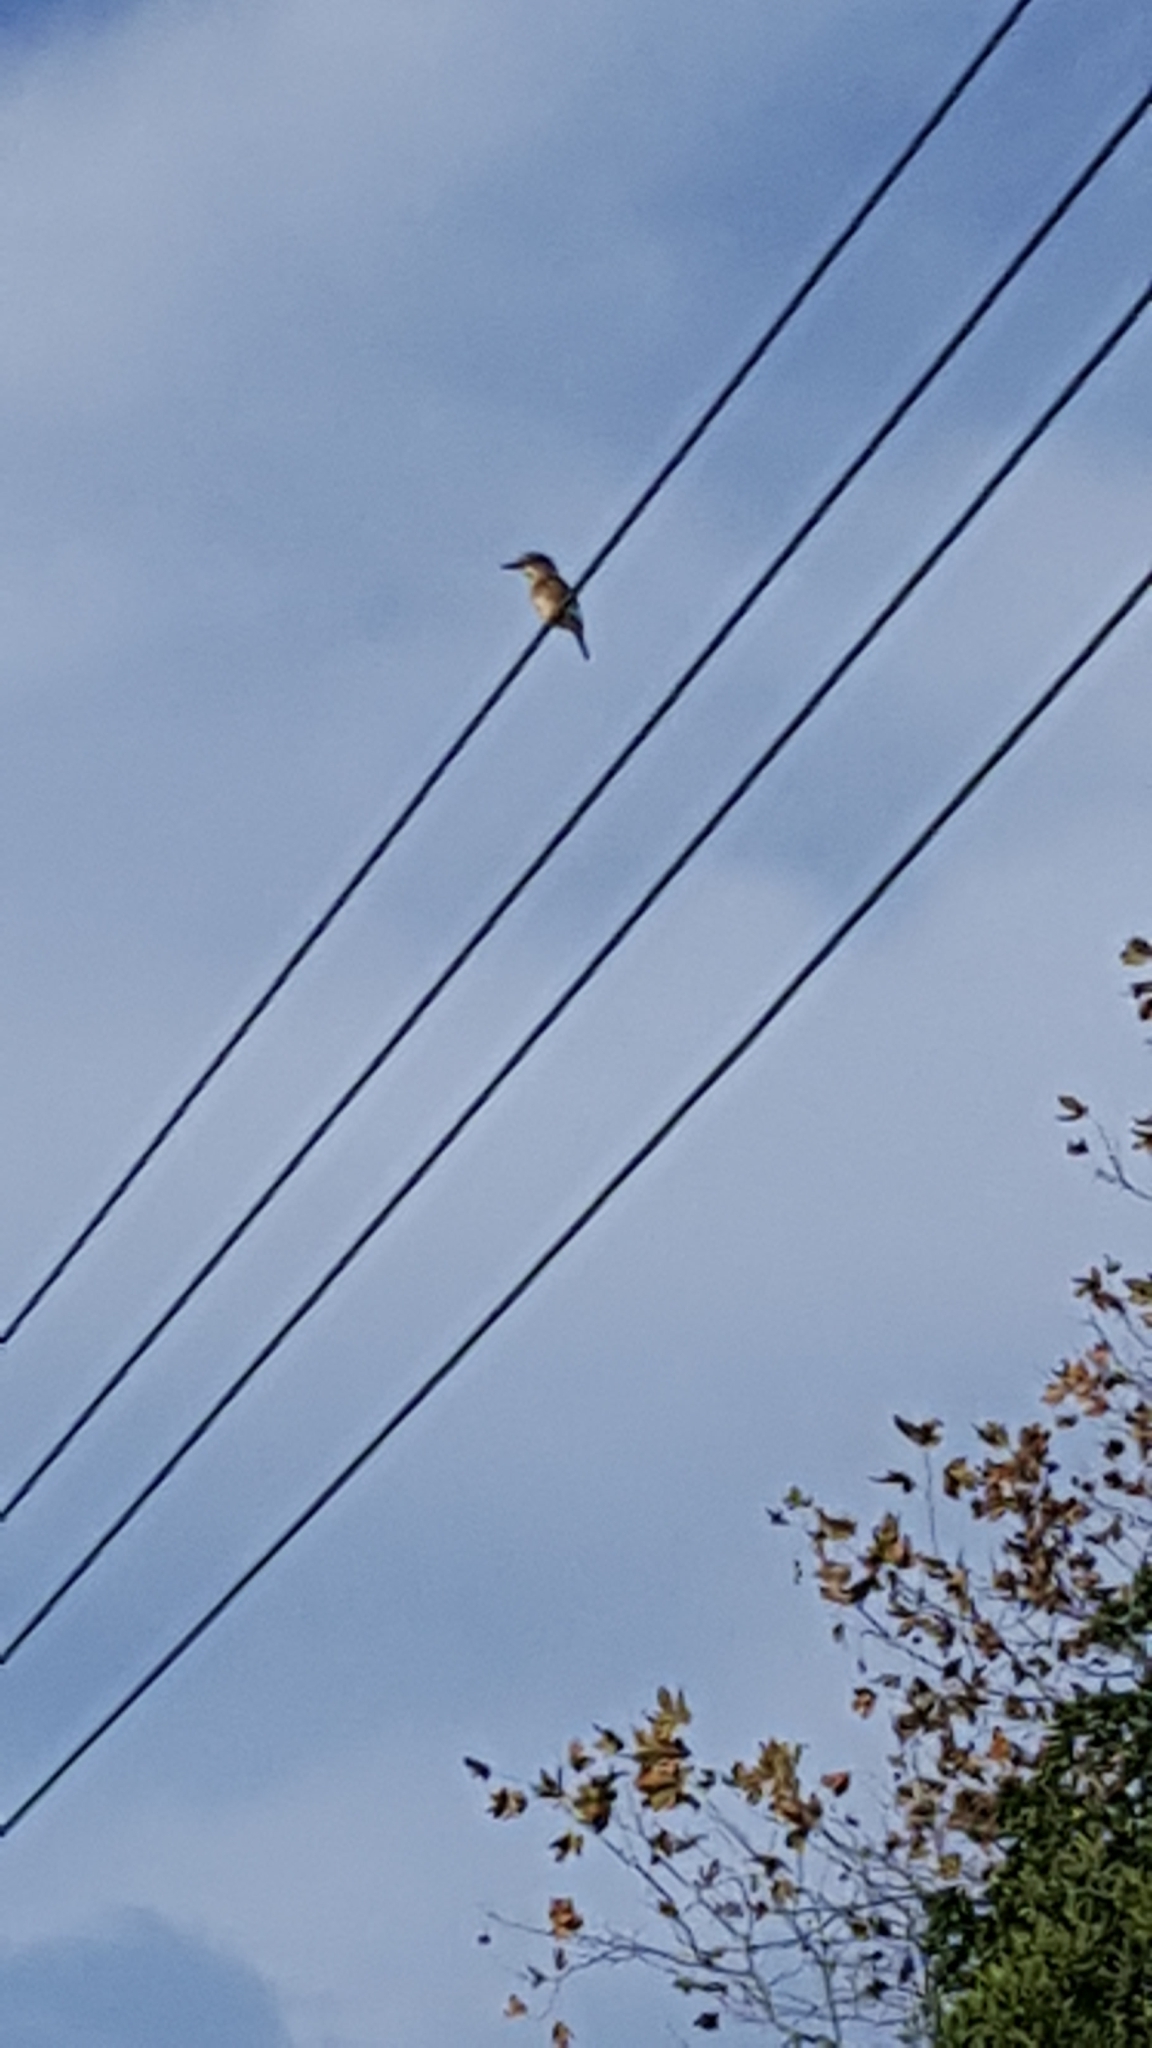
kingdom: Animalia
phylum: Chordata
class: Aves
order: Coraciiformes
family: Alcedinidae
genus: Halcyon
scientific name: Halcyon albiventris
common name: Brown-hooded kingfisher
